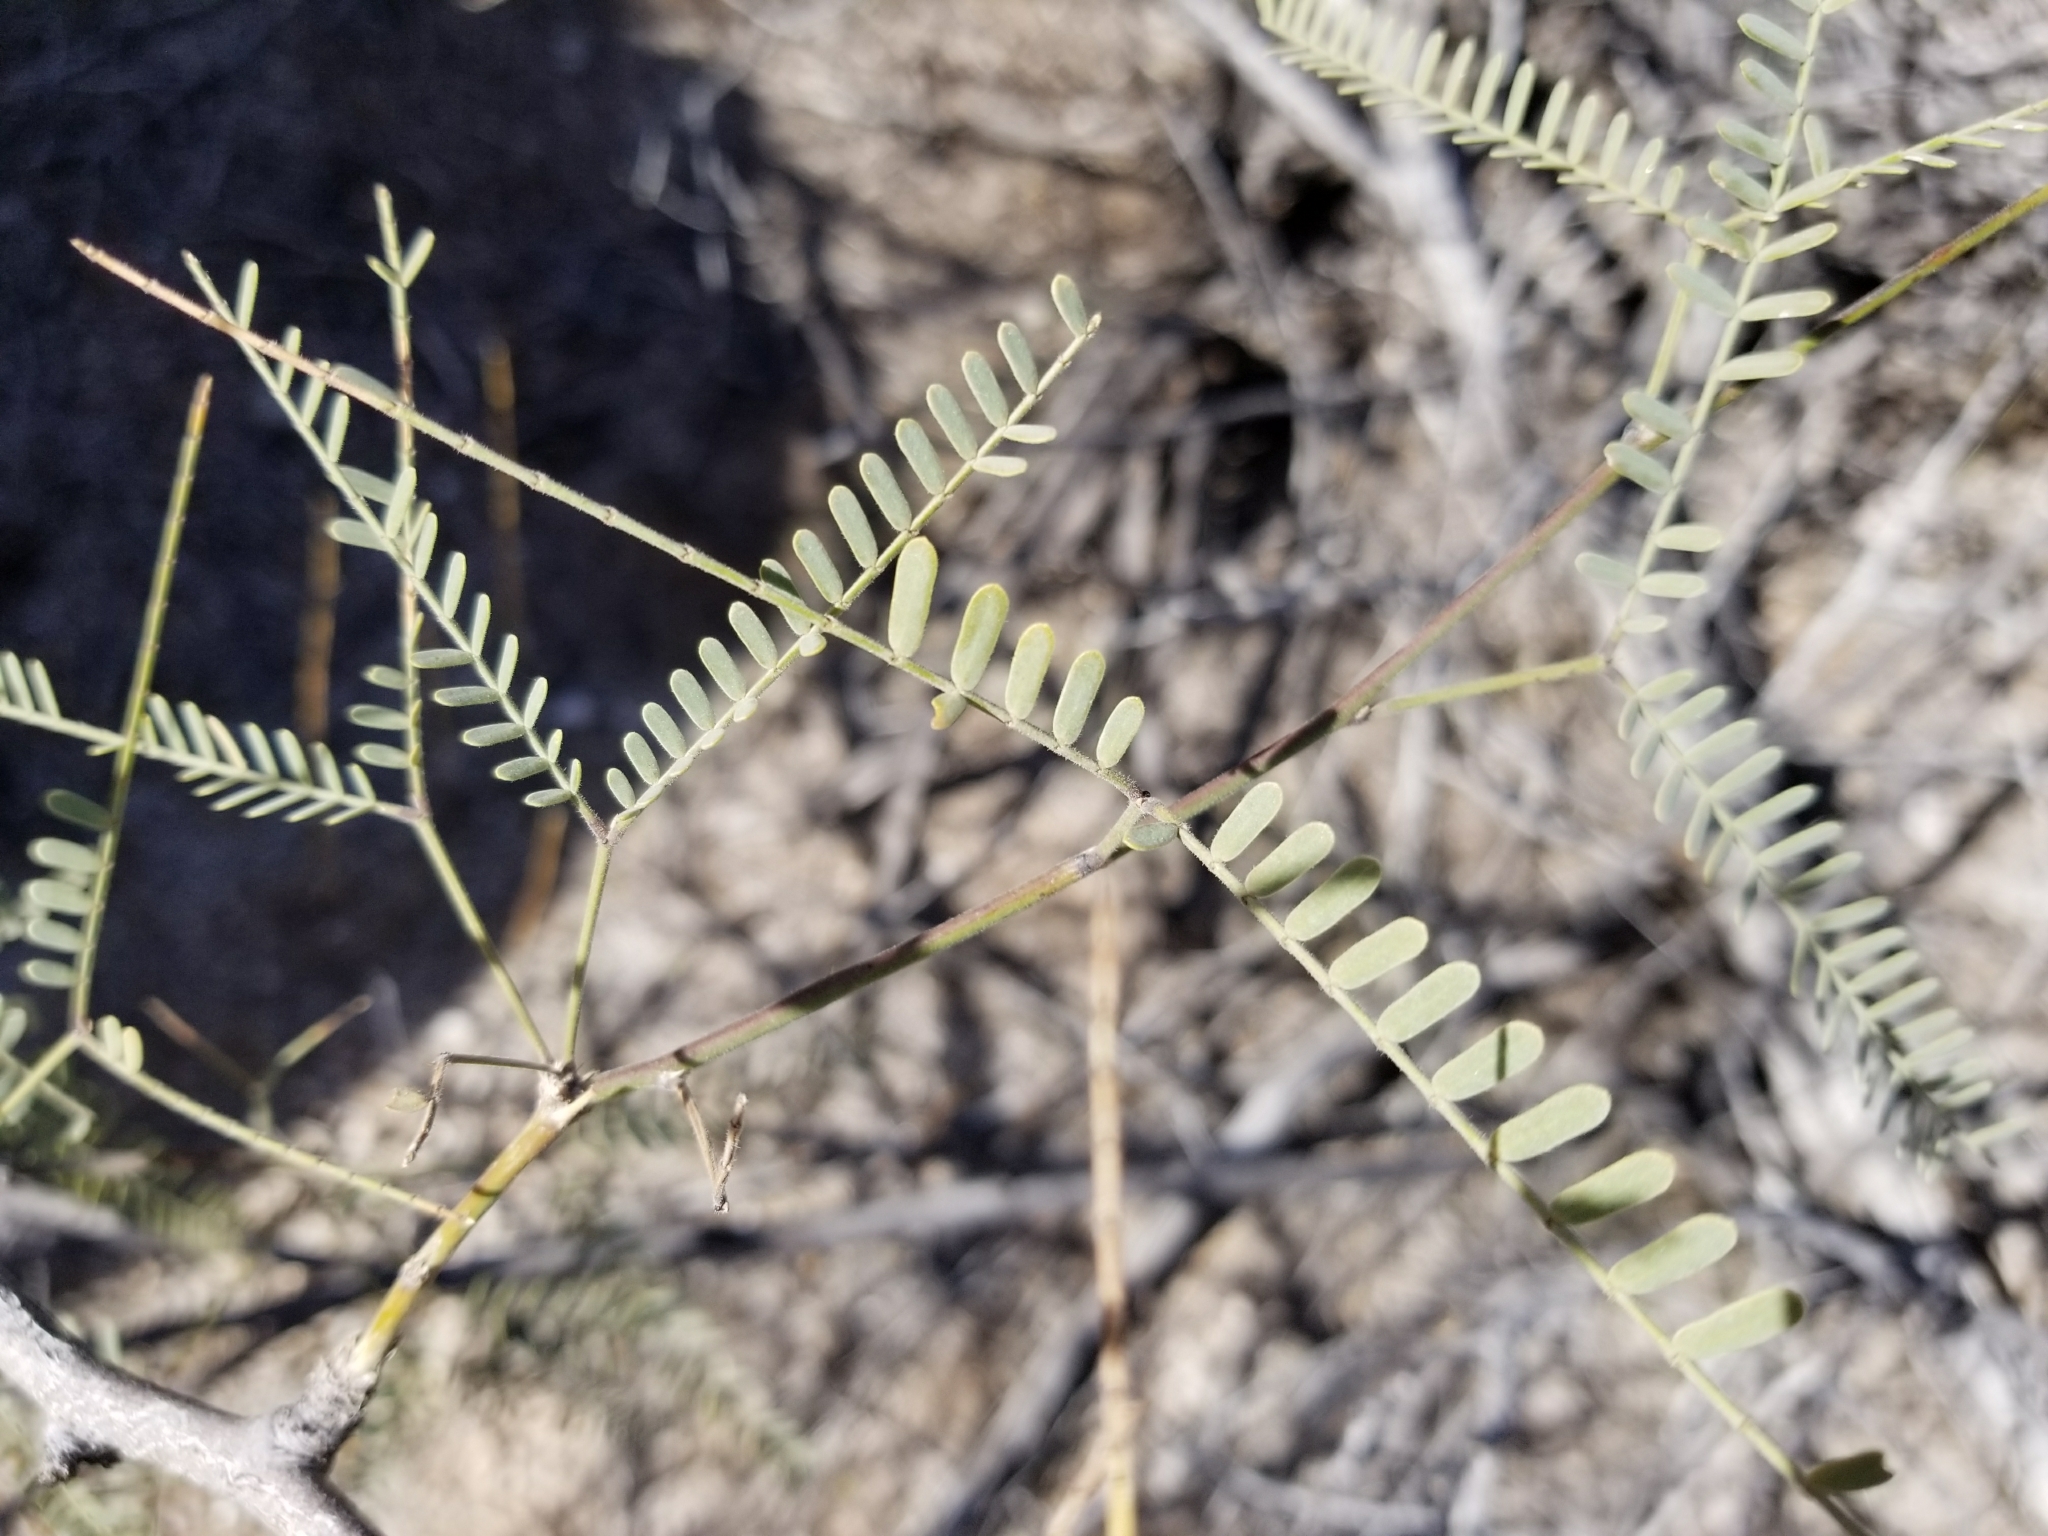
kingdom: Plantae
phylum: Tracheophyta
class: Magnoliopsida
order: Fabales
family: Fabaceae
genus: Prosopis
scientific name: Prosopis glandulosa
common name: Honey mesquite
